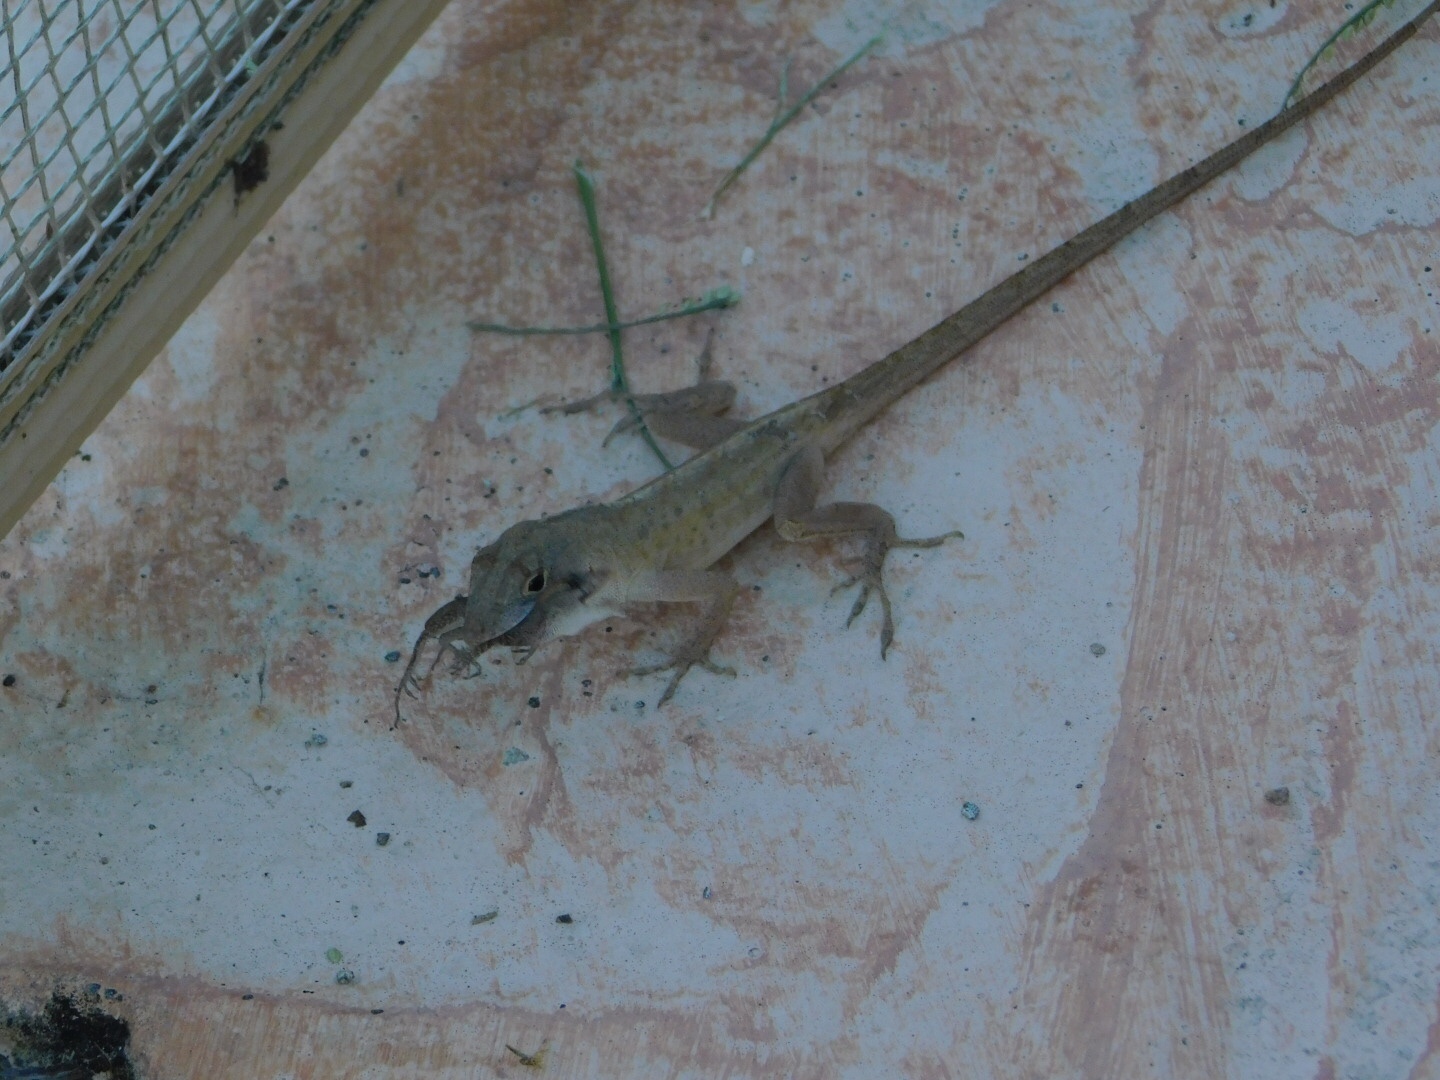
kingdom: Animalia
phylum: Chordata
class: Squamata
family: Dactyloidae
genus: Anolis
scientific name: Anolis sagrei
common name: Brown anole
